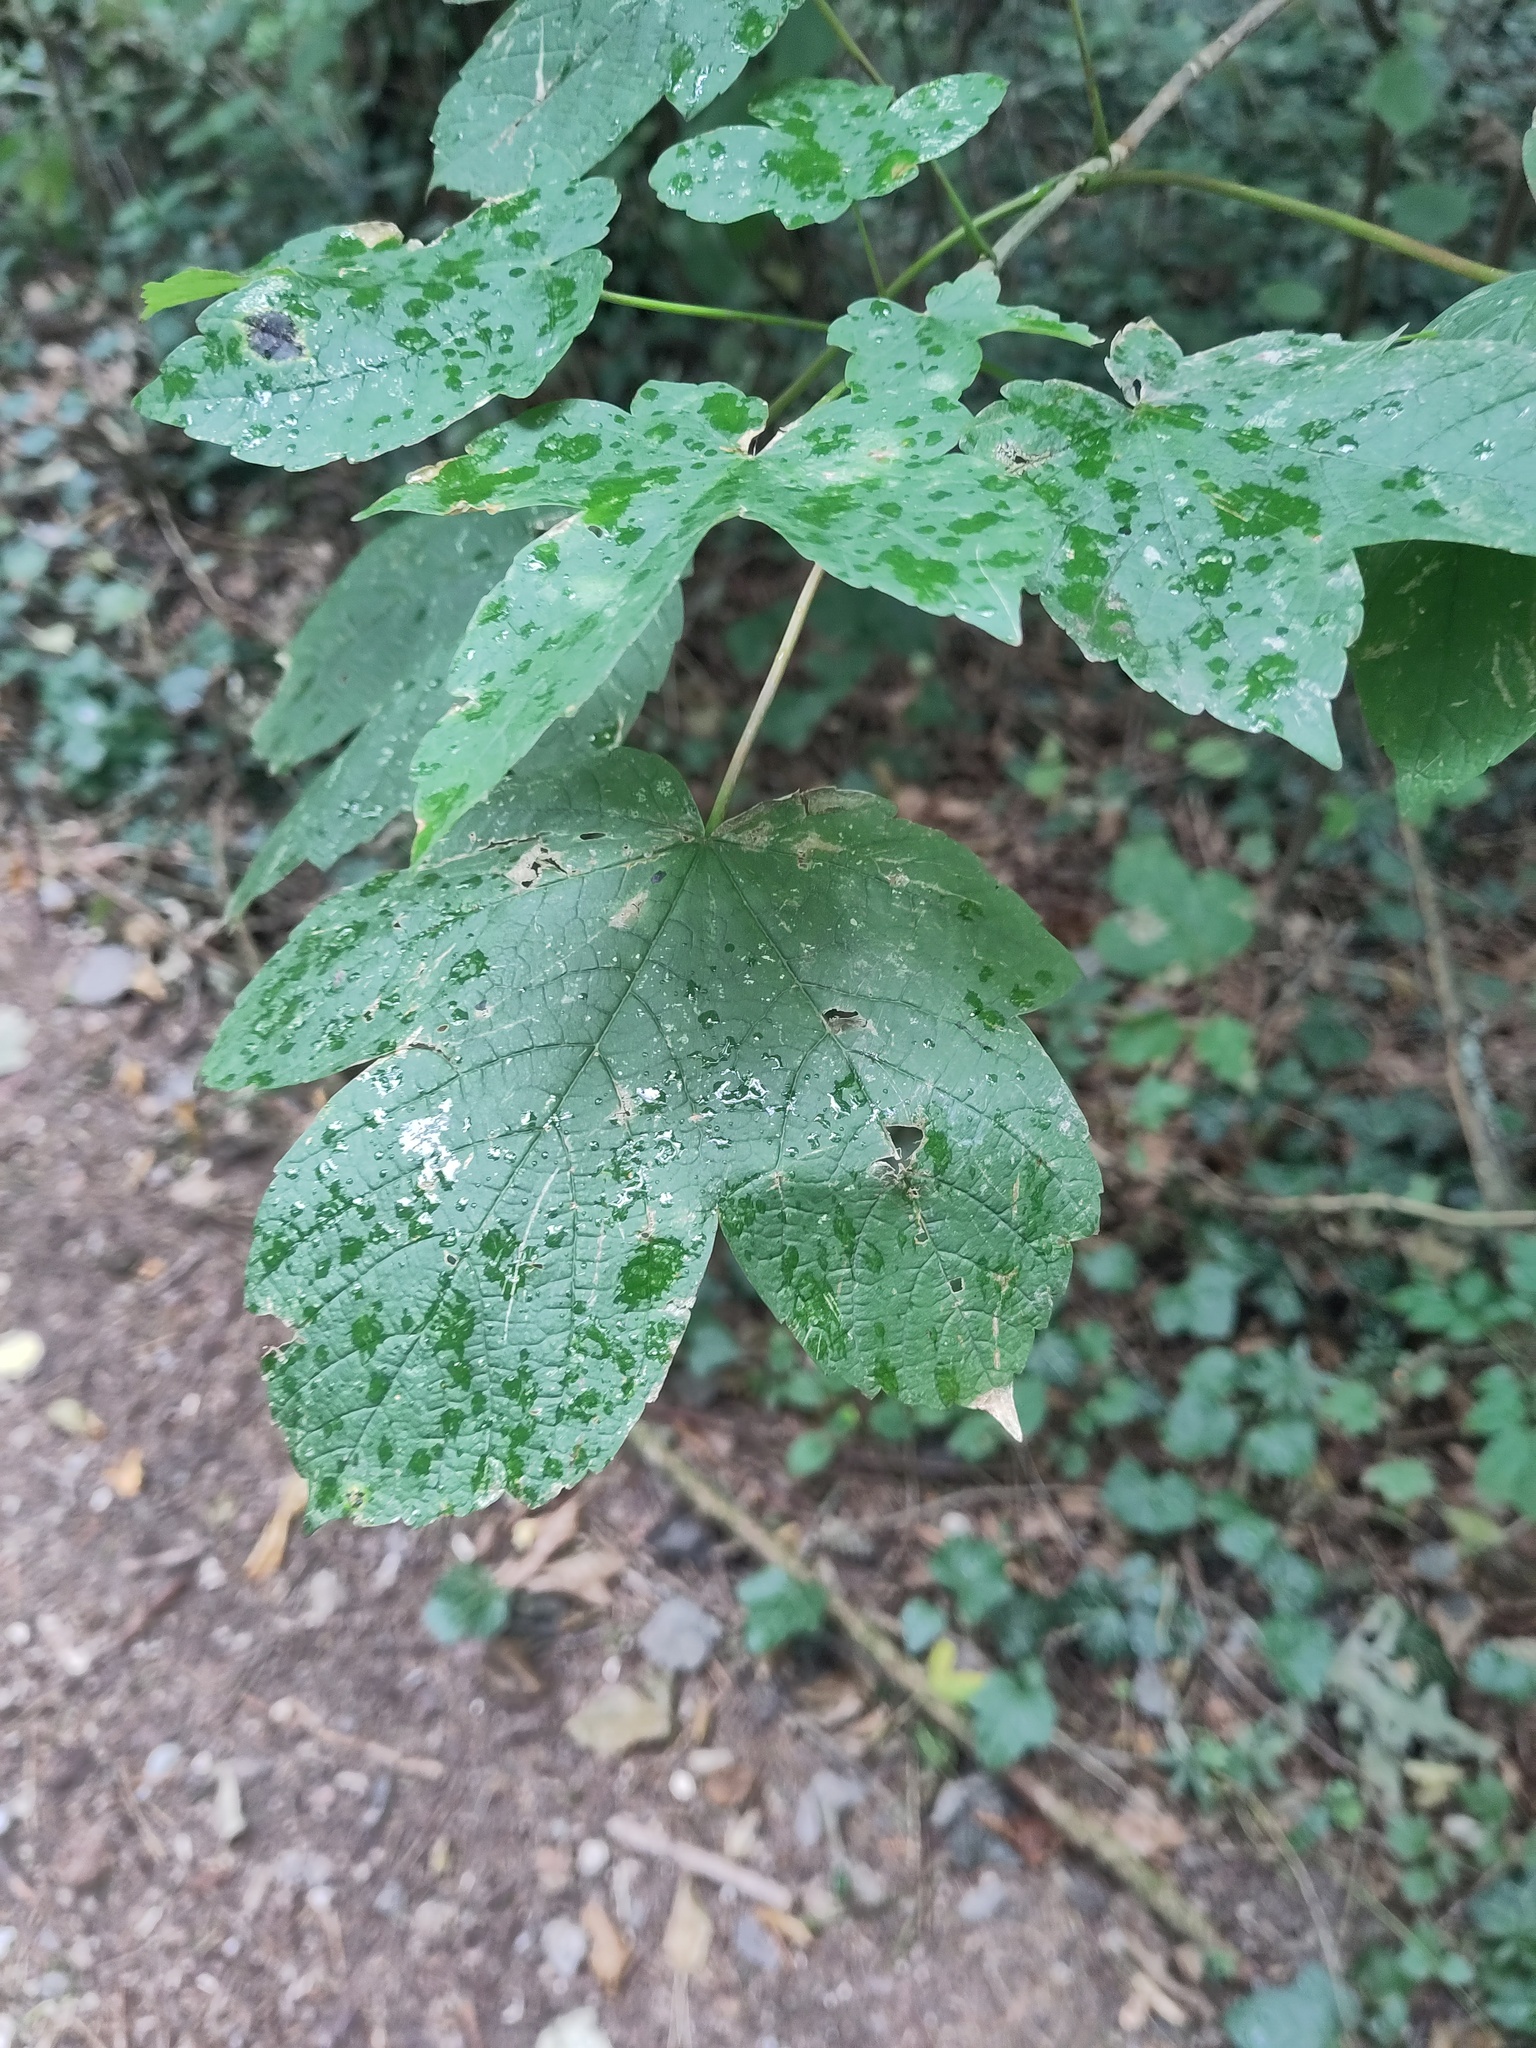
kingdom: Plantae
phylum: Tracheophyta
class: Magnoliopsida
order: Sapindales
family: Sapindaceae
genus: Acer
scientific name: Acer pseudoplatanus
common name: Sycamore
